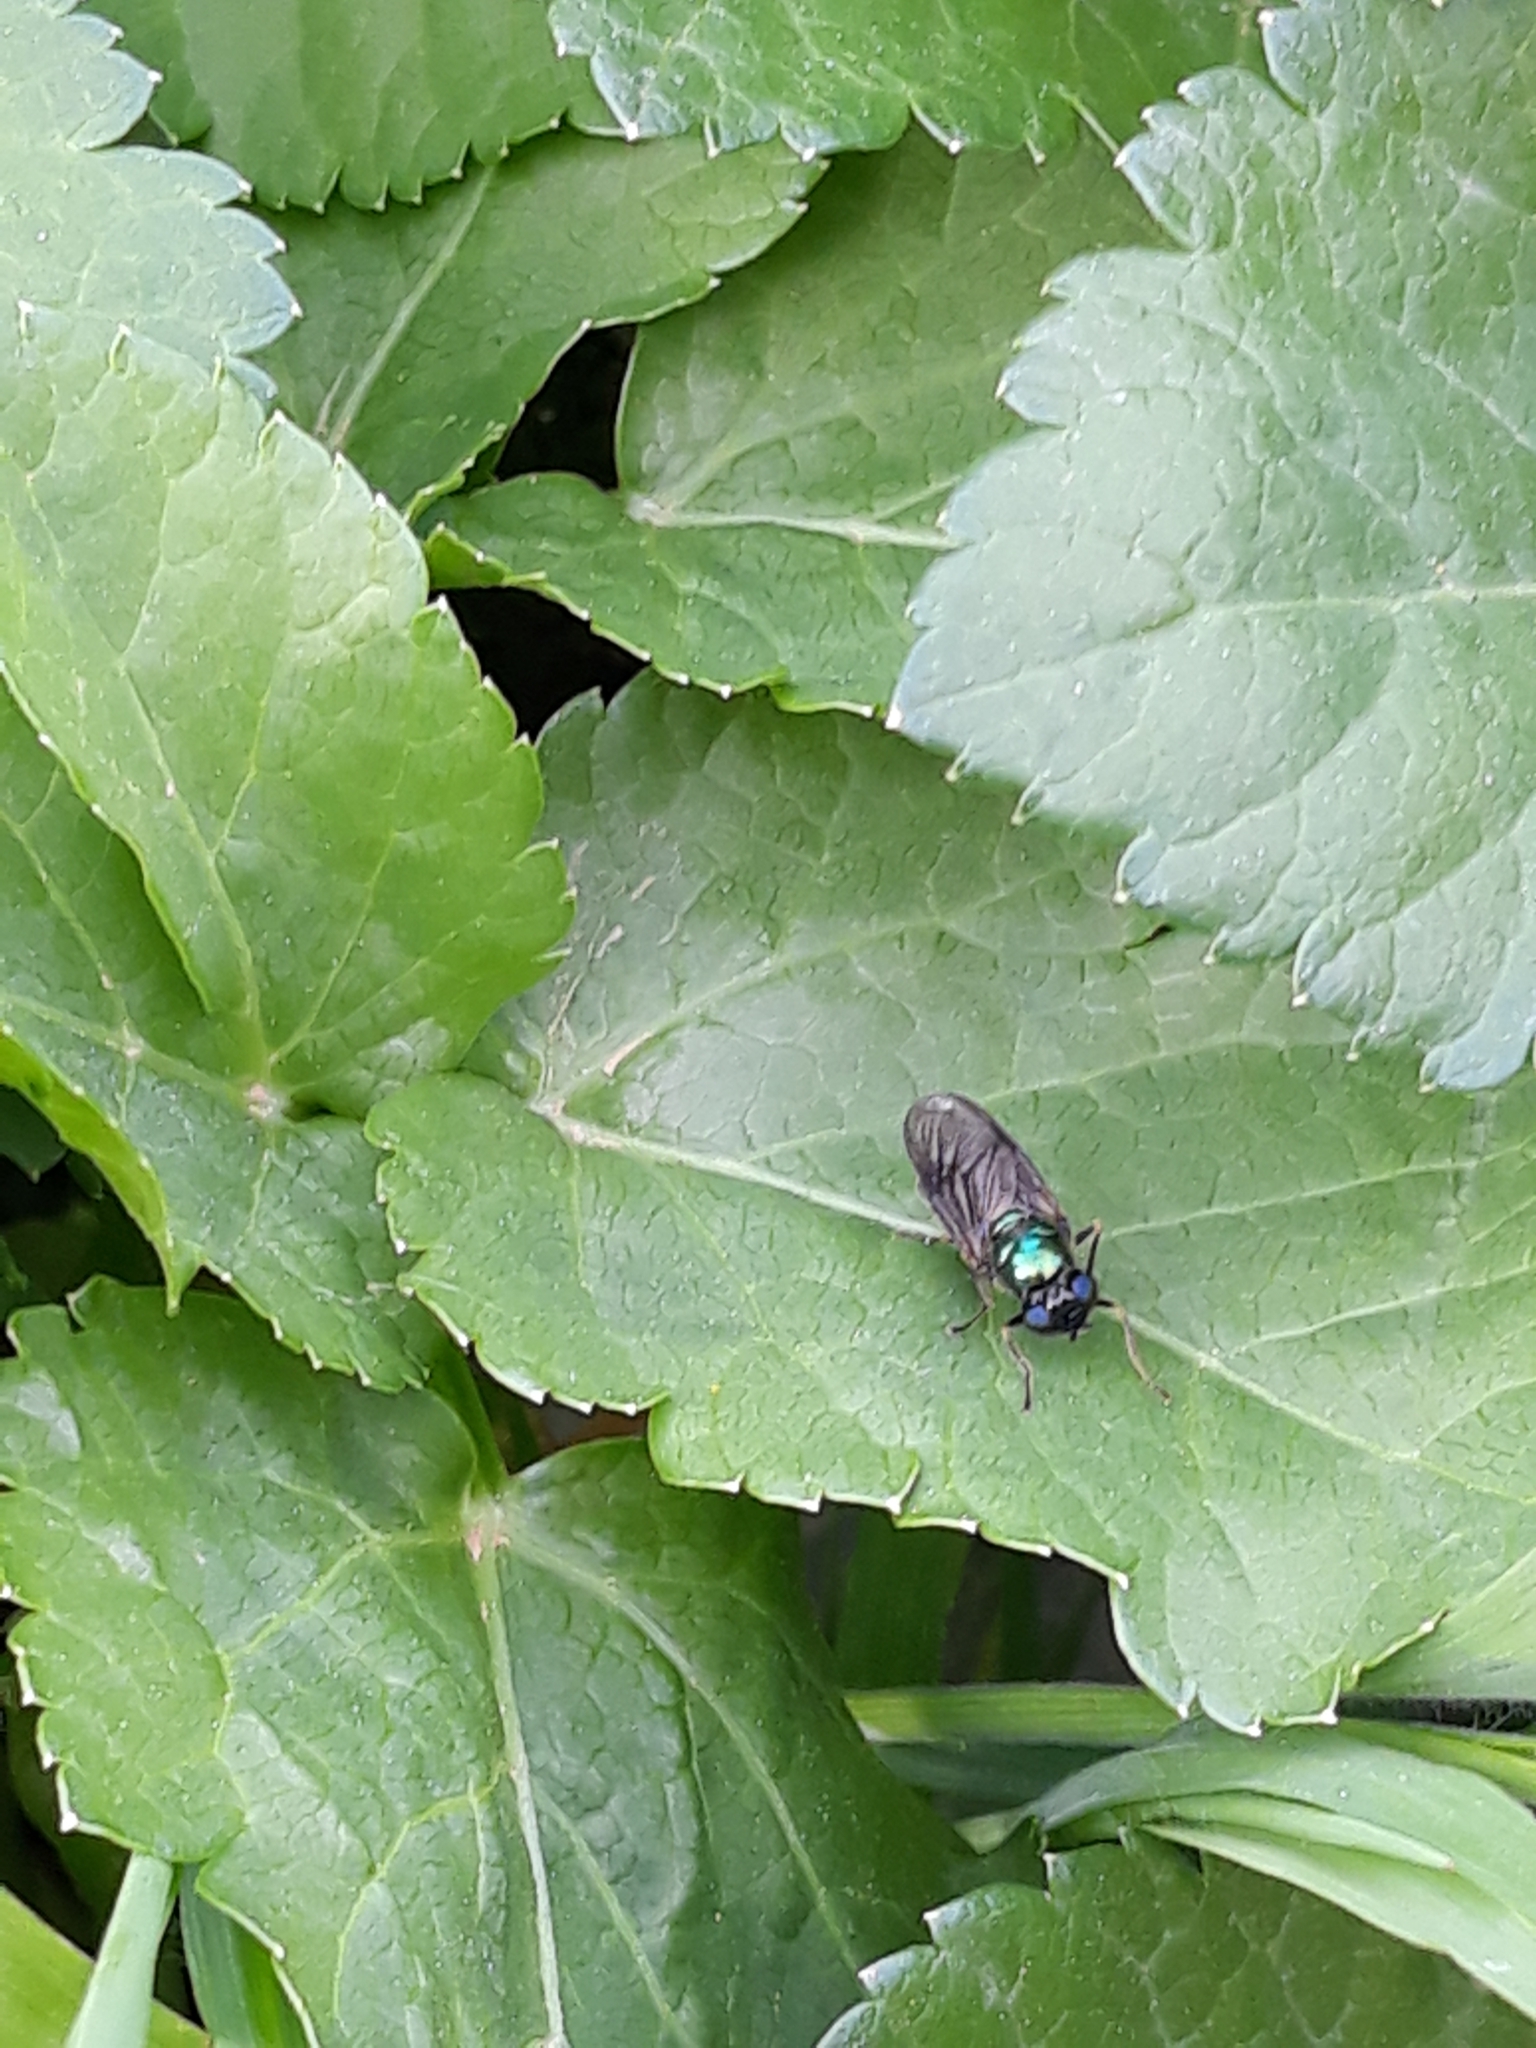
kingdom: Animalia
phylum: Arthropoda
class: Insecta
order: Diptera
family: Stratiomyidae
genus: Chloromyia
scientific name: Chloromyia formosa
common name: Soldier fly
